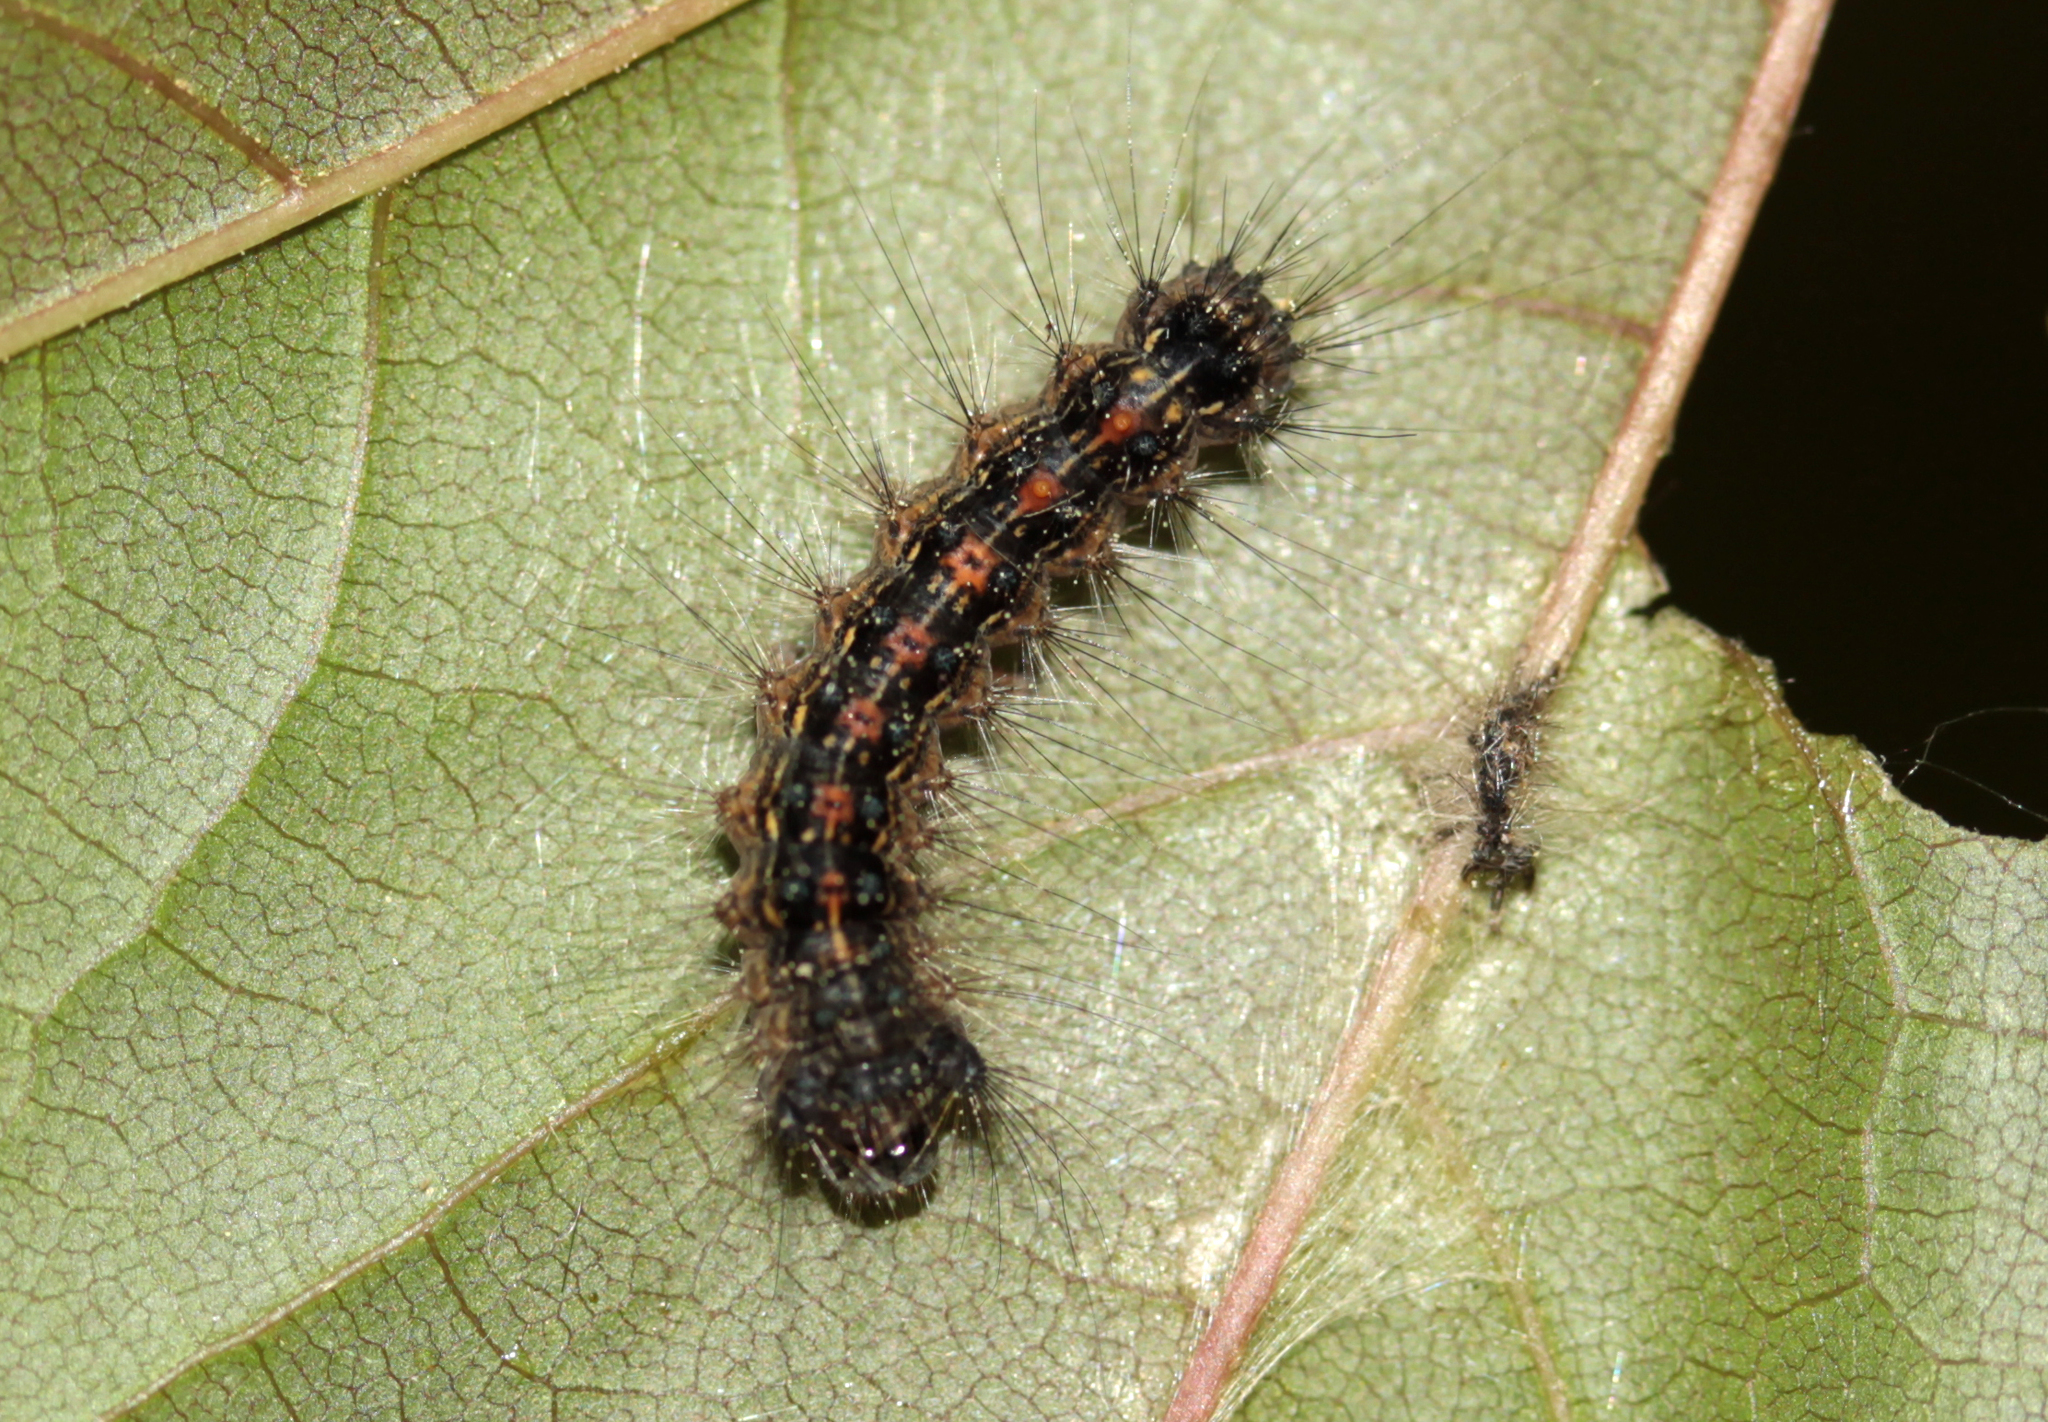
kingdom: Animalia
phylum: Arthropoda
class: Insecta
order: Lepidoptera
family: Erebidae
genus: Lymantria
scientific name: Lymantria dispar
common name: Gypsy moth
